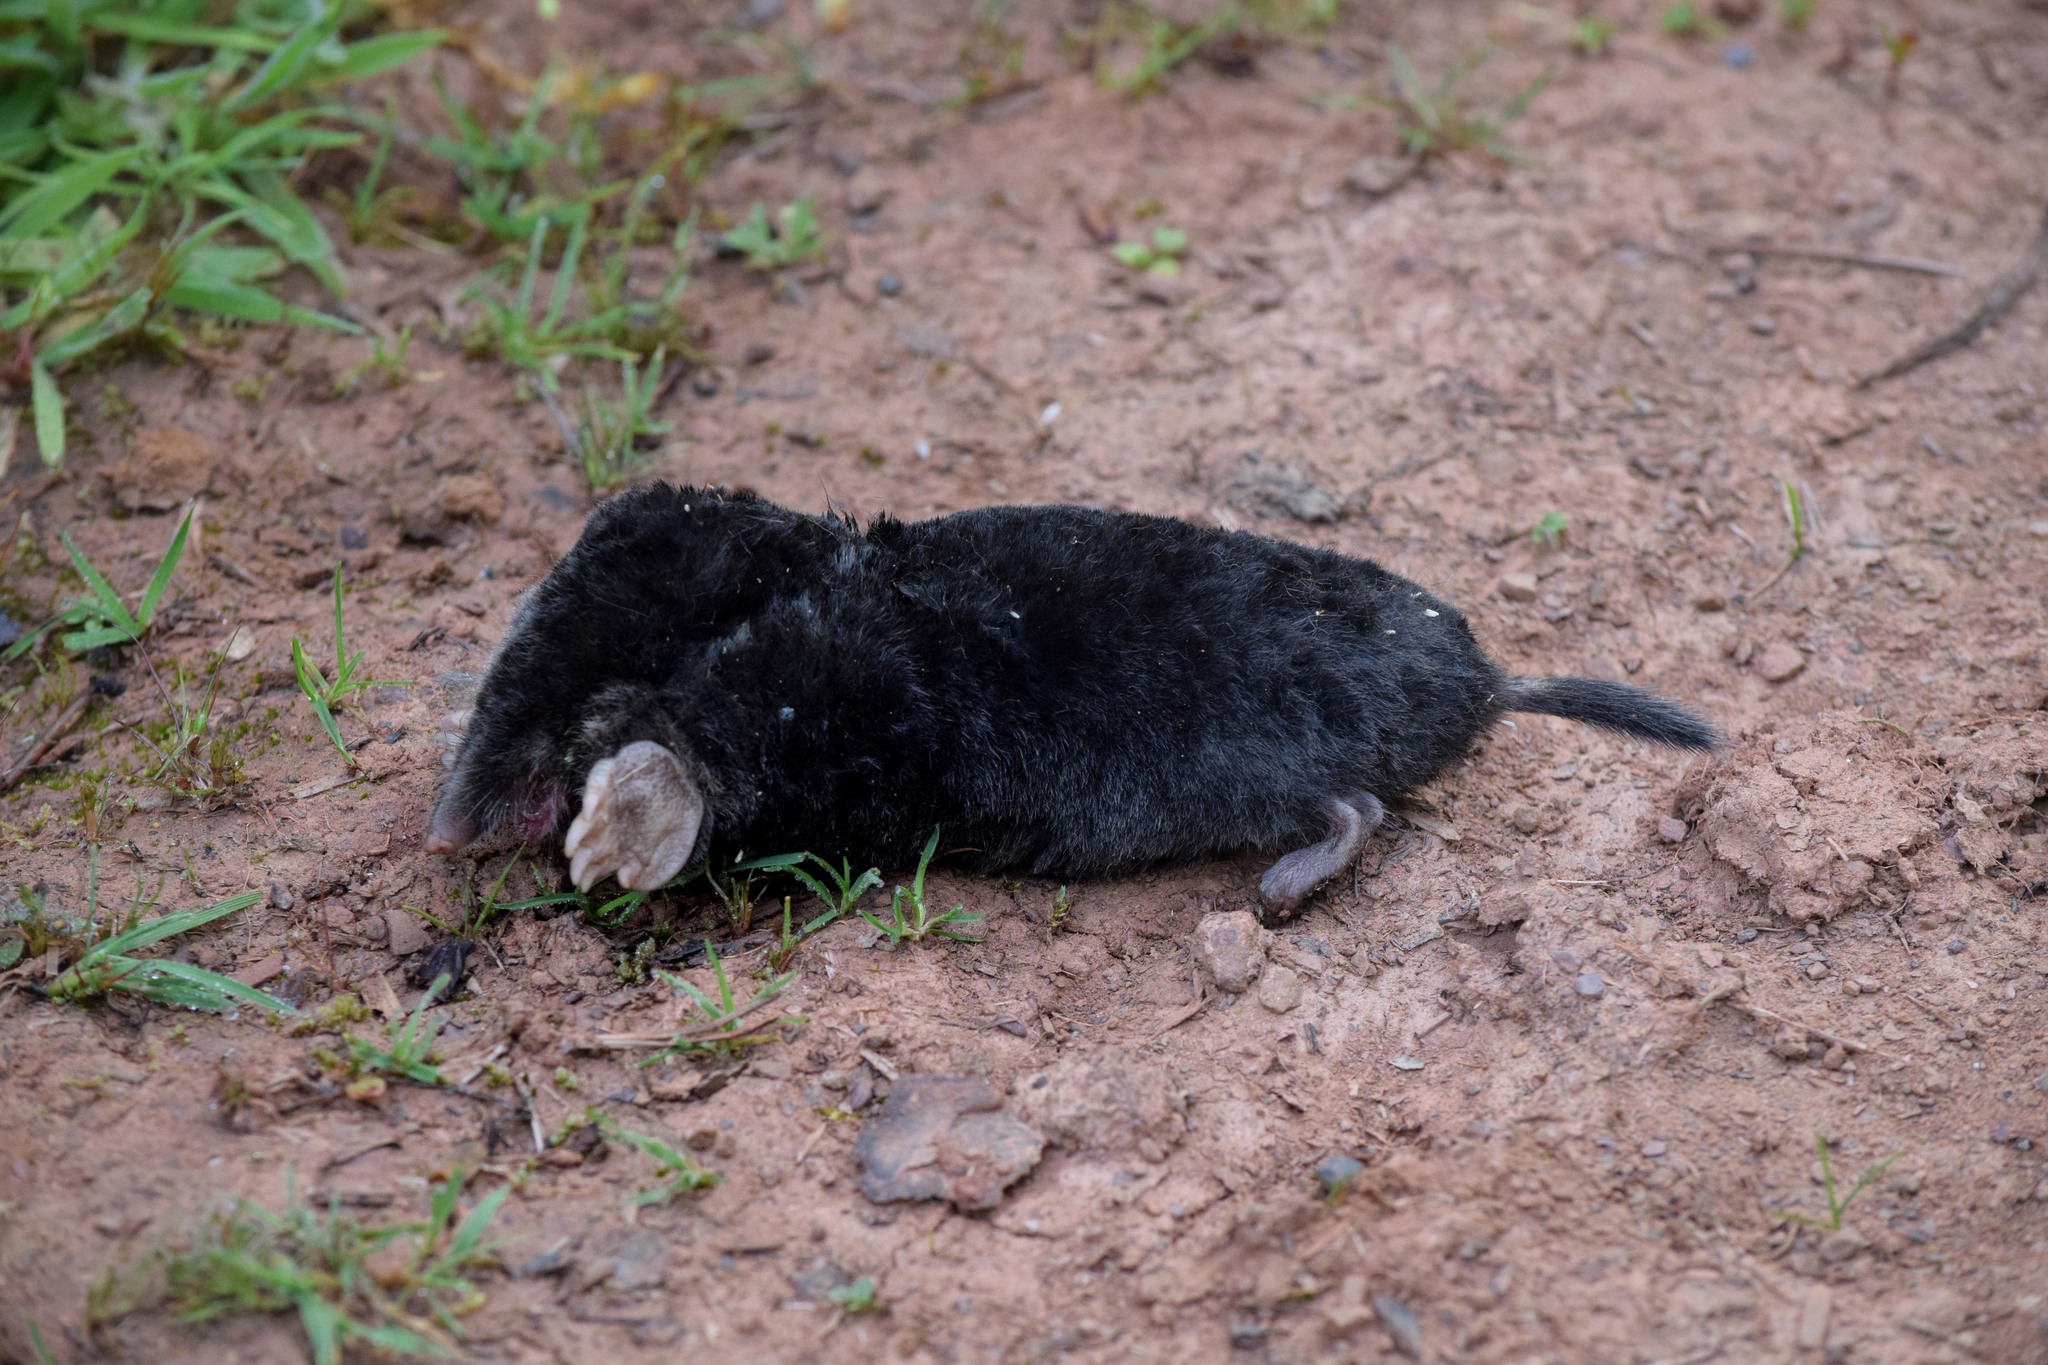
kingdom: Animalia
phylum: Chordata
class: Mammalia
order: Soricomorpha
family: Talpidae
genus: Talpa
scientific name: Talpa europaea
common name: European mole
